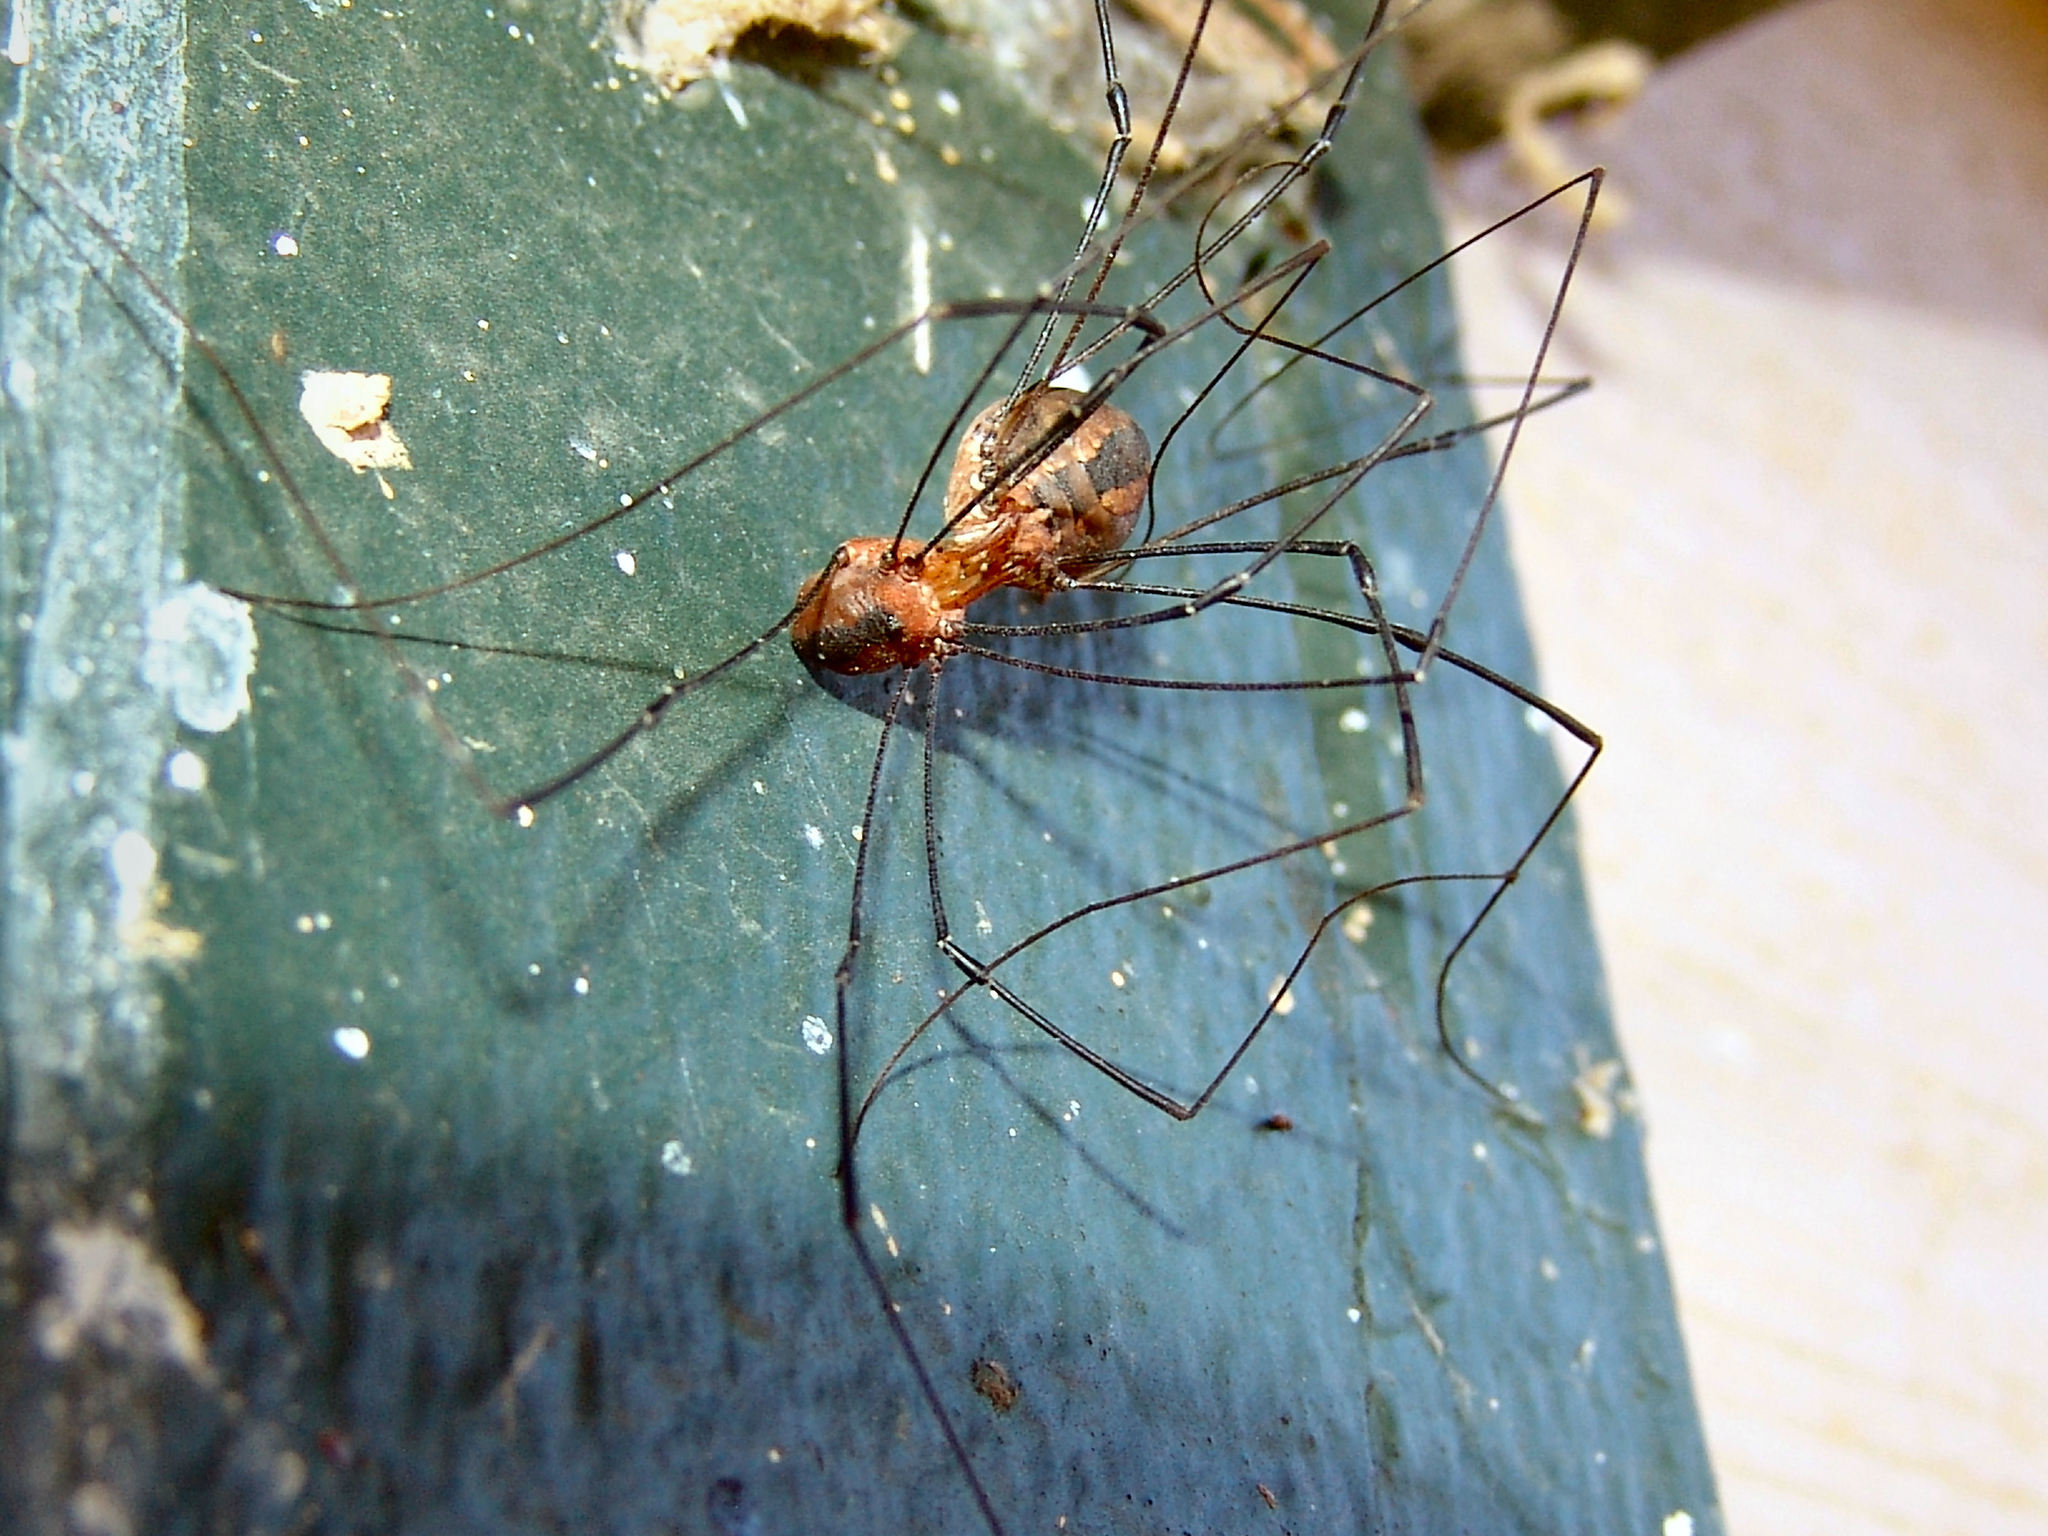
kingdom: Animalia
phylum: Arthropoda
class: Arachnida
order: Opiliones
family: Sclerosomatidae
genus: Leiobunum
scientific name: Leiobunum vittatum
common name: Eastern harvestman
